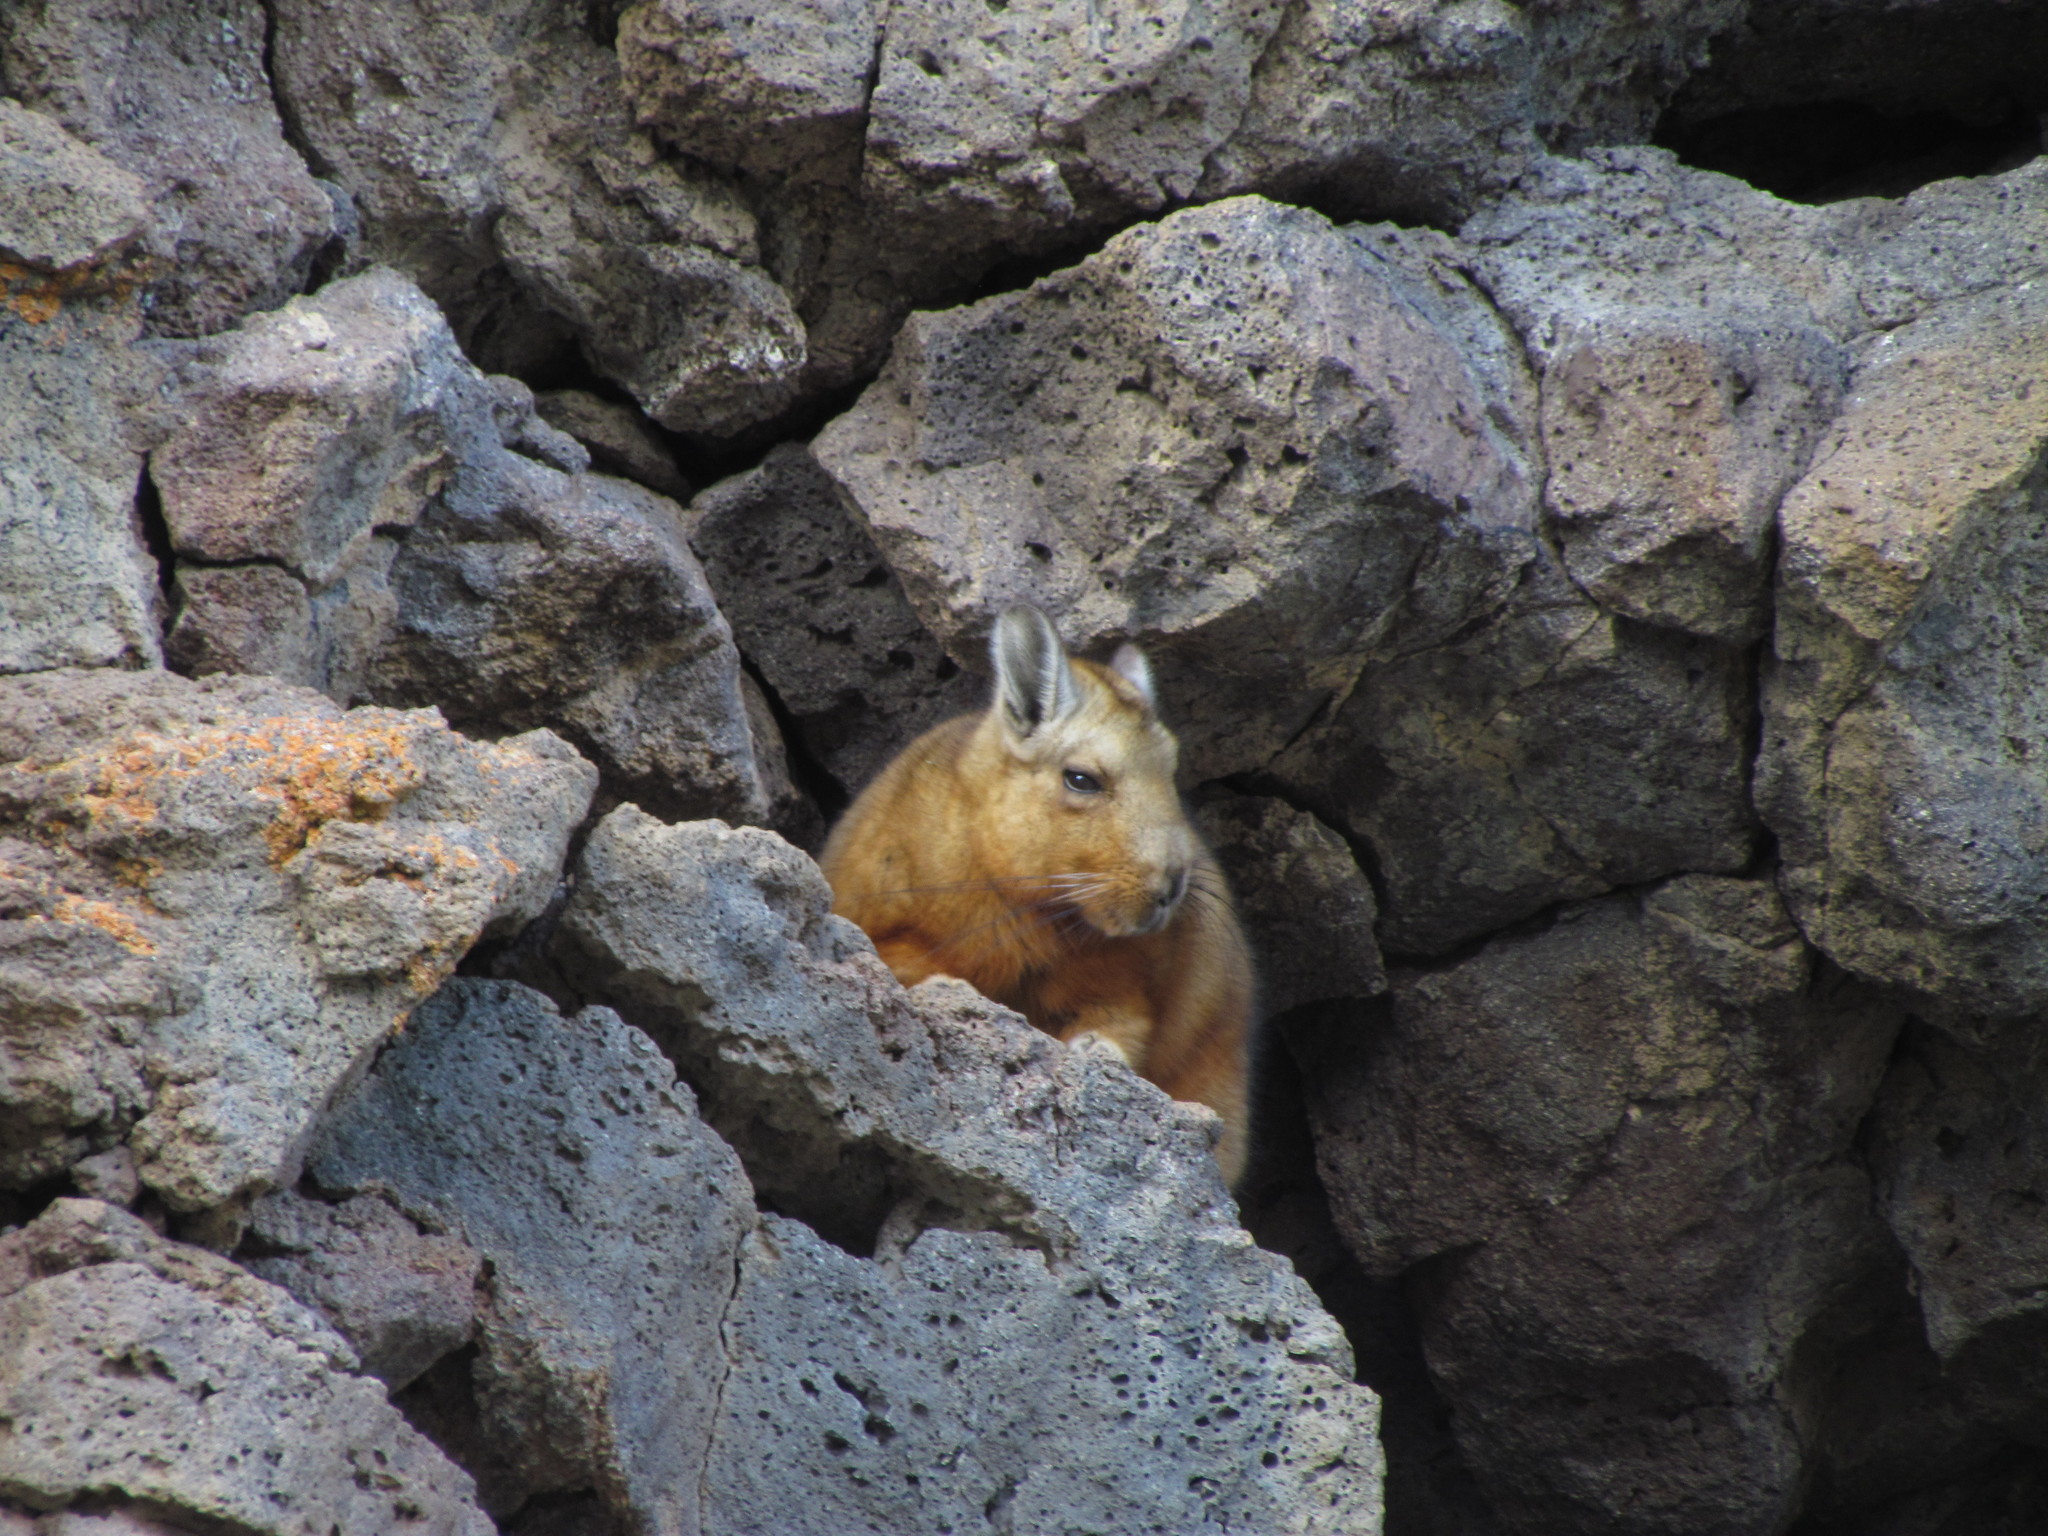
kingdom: Animalia
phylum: Chordata
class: Mammalia
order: Rodentia
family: Chinchillidae
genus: Lagidium
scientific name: Lagidium wolffsohni
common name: Wolffsohn's viscacha
